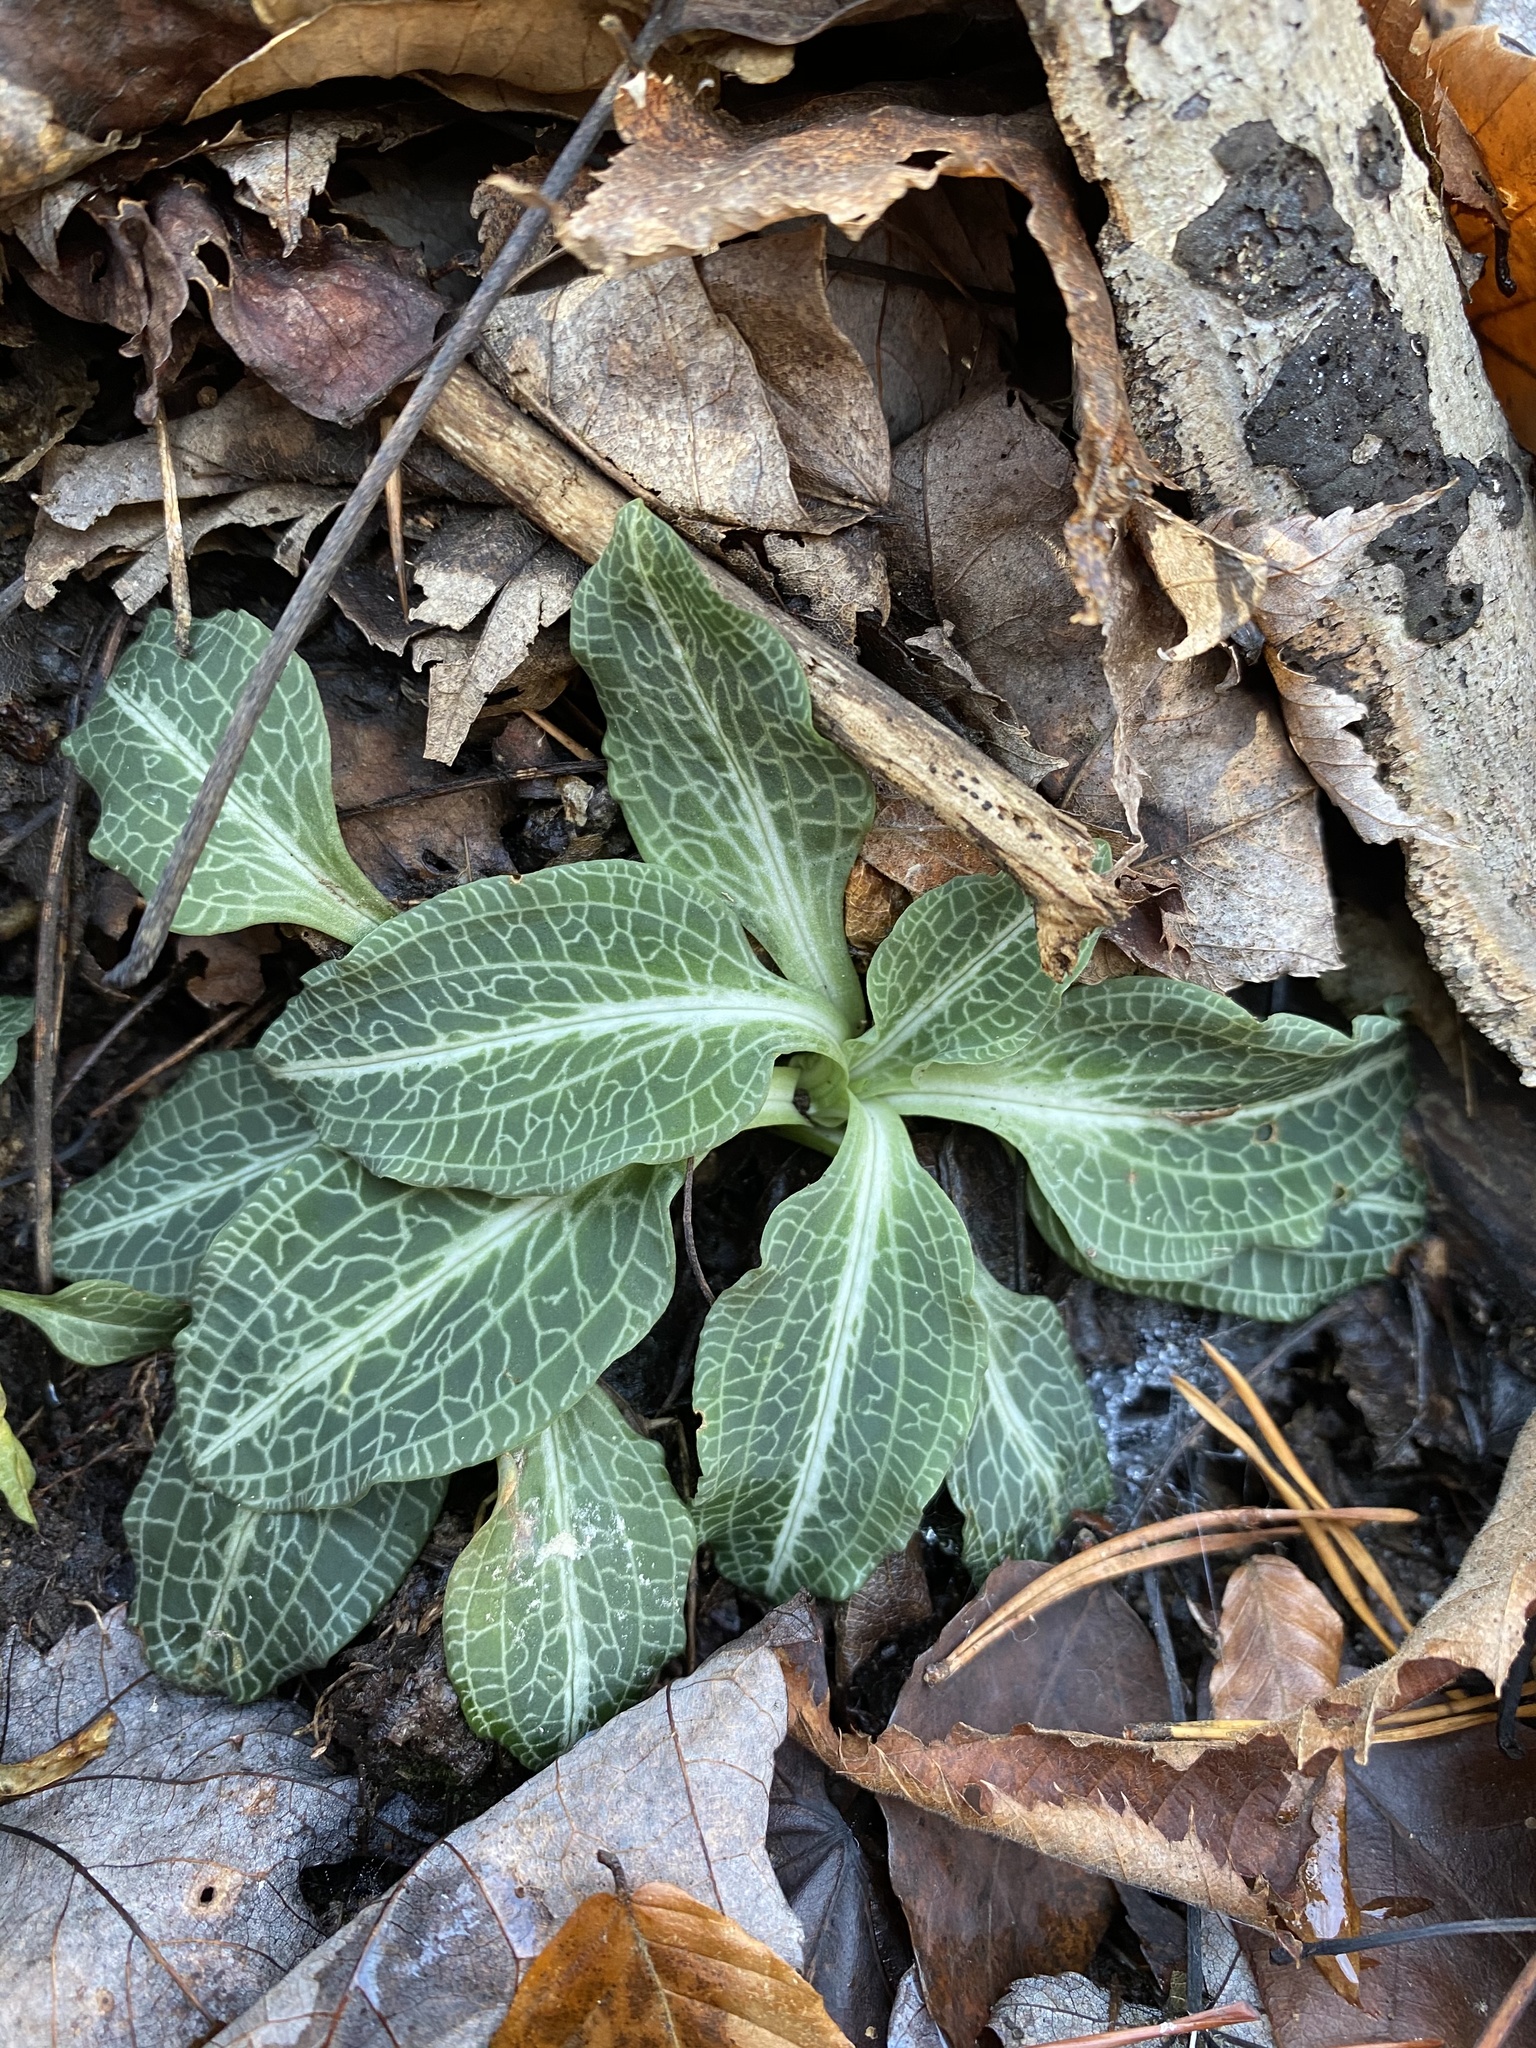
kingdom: Plantae
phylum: Tracheophyta
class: Liliopsida
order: Asparagales
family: Orchidaceae
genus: Goodyera
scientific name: Goodyera pubescens
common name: Downy rattlesnake-plantain
